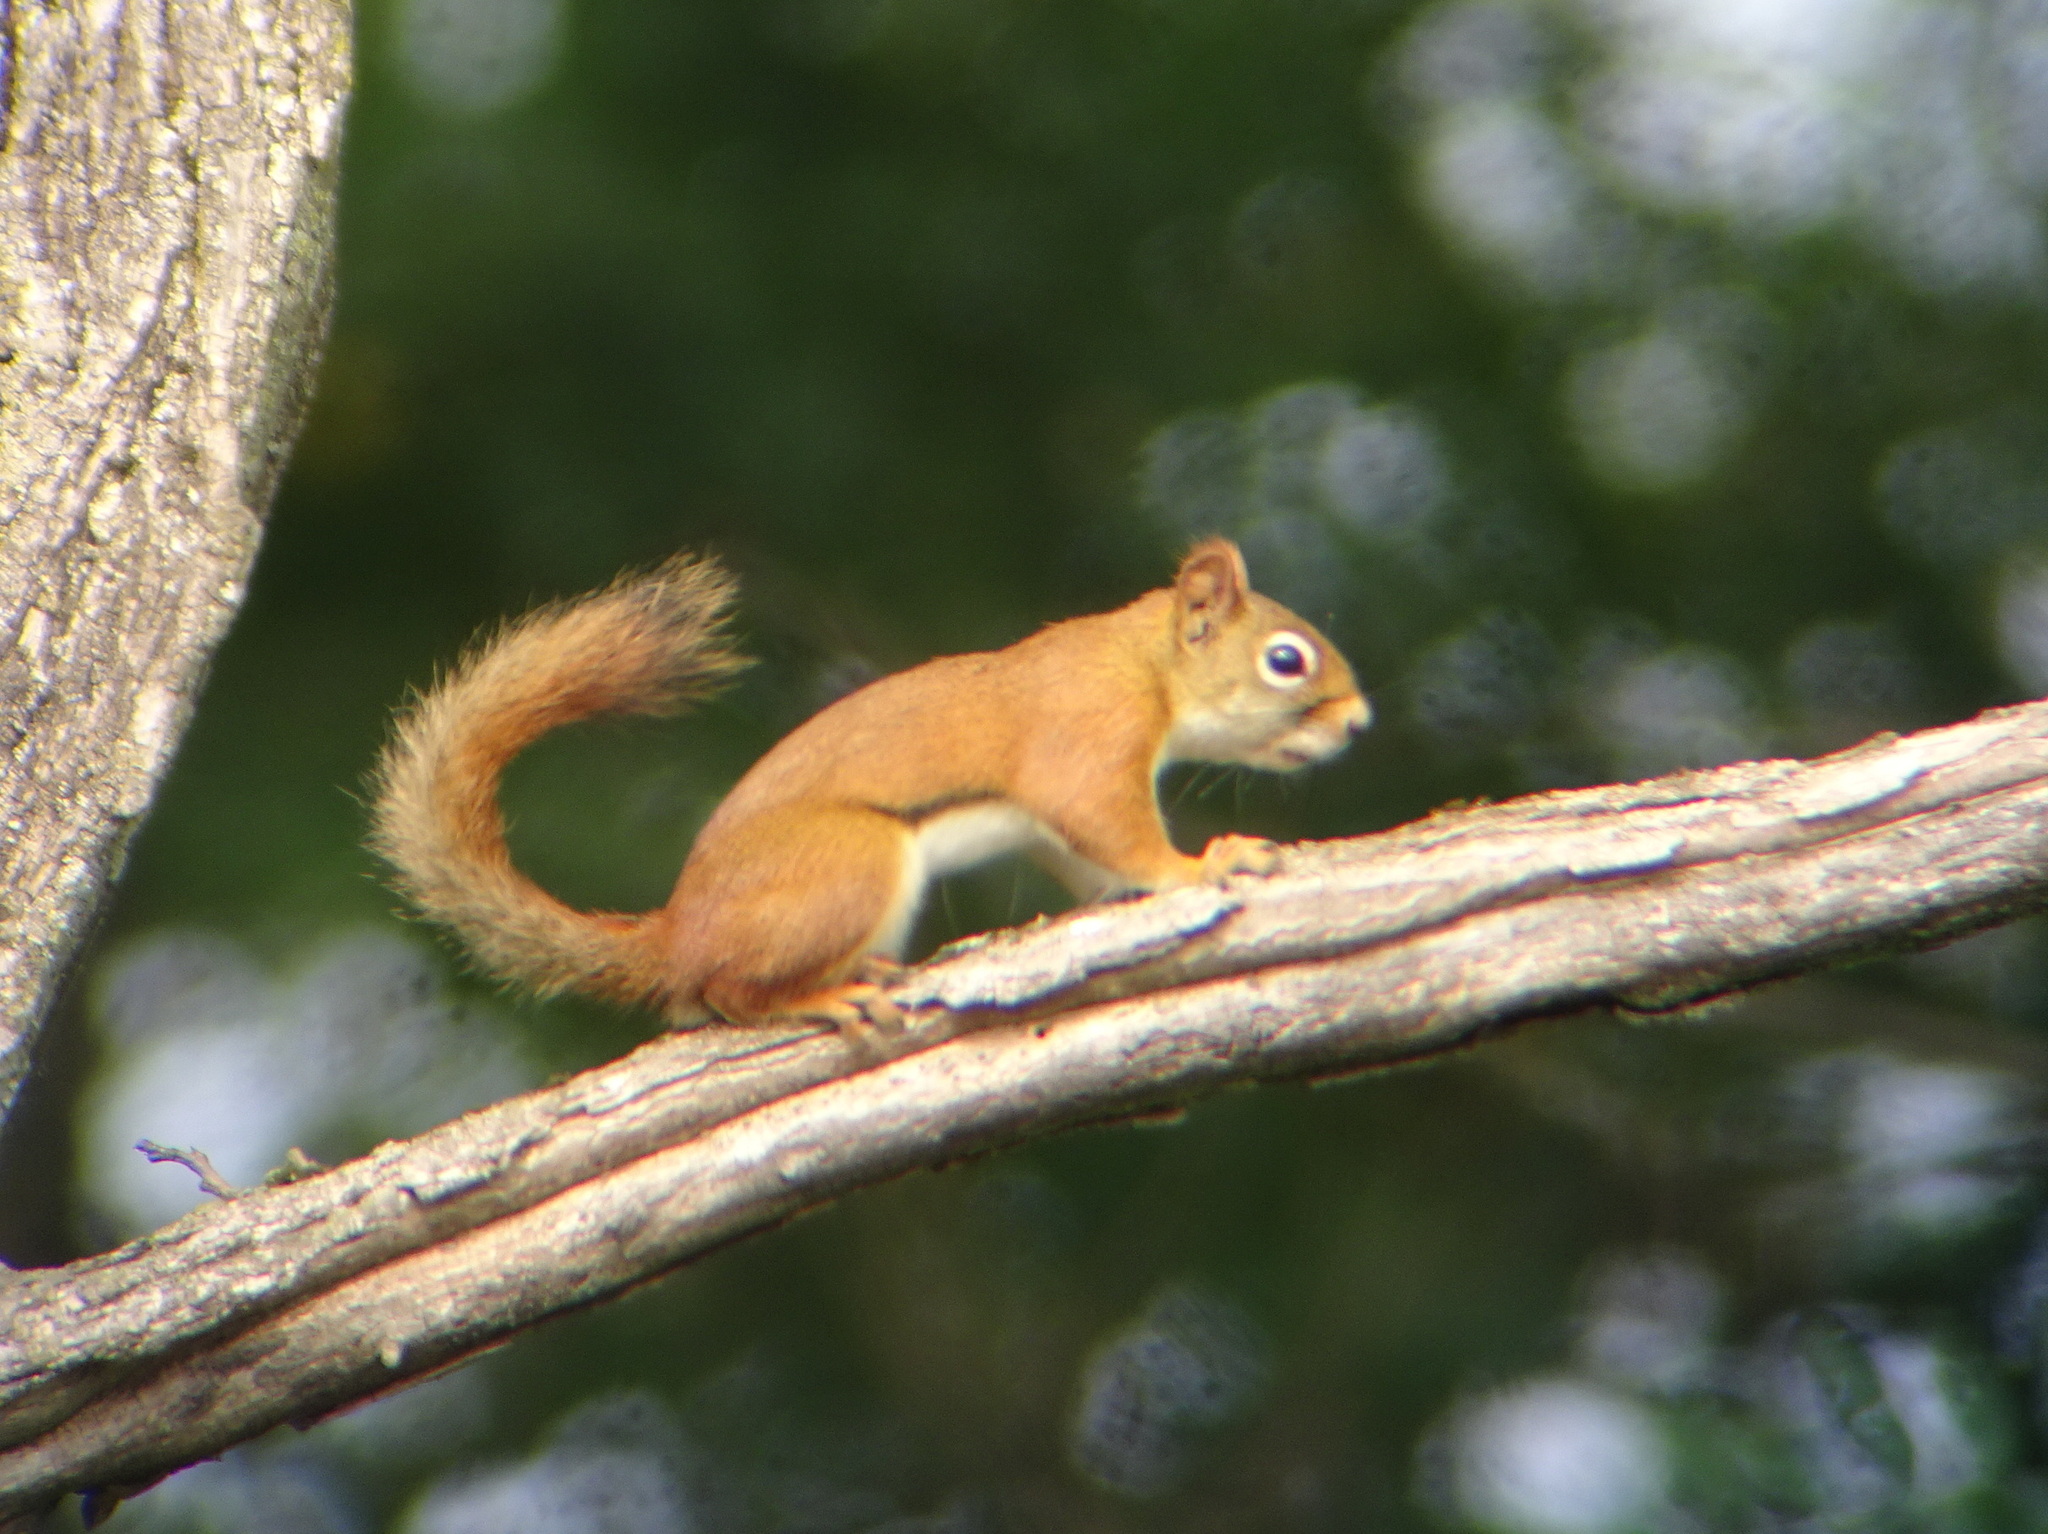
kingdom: Animalia
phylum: Chordata
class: Mammalia
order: Rodentia
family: Sciuridae
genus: Tamiasciurus
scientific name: Tamiasciurus hudsonicus
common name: Red squirrel
